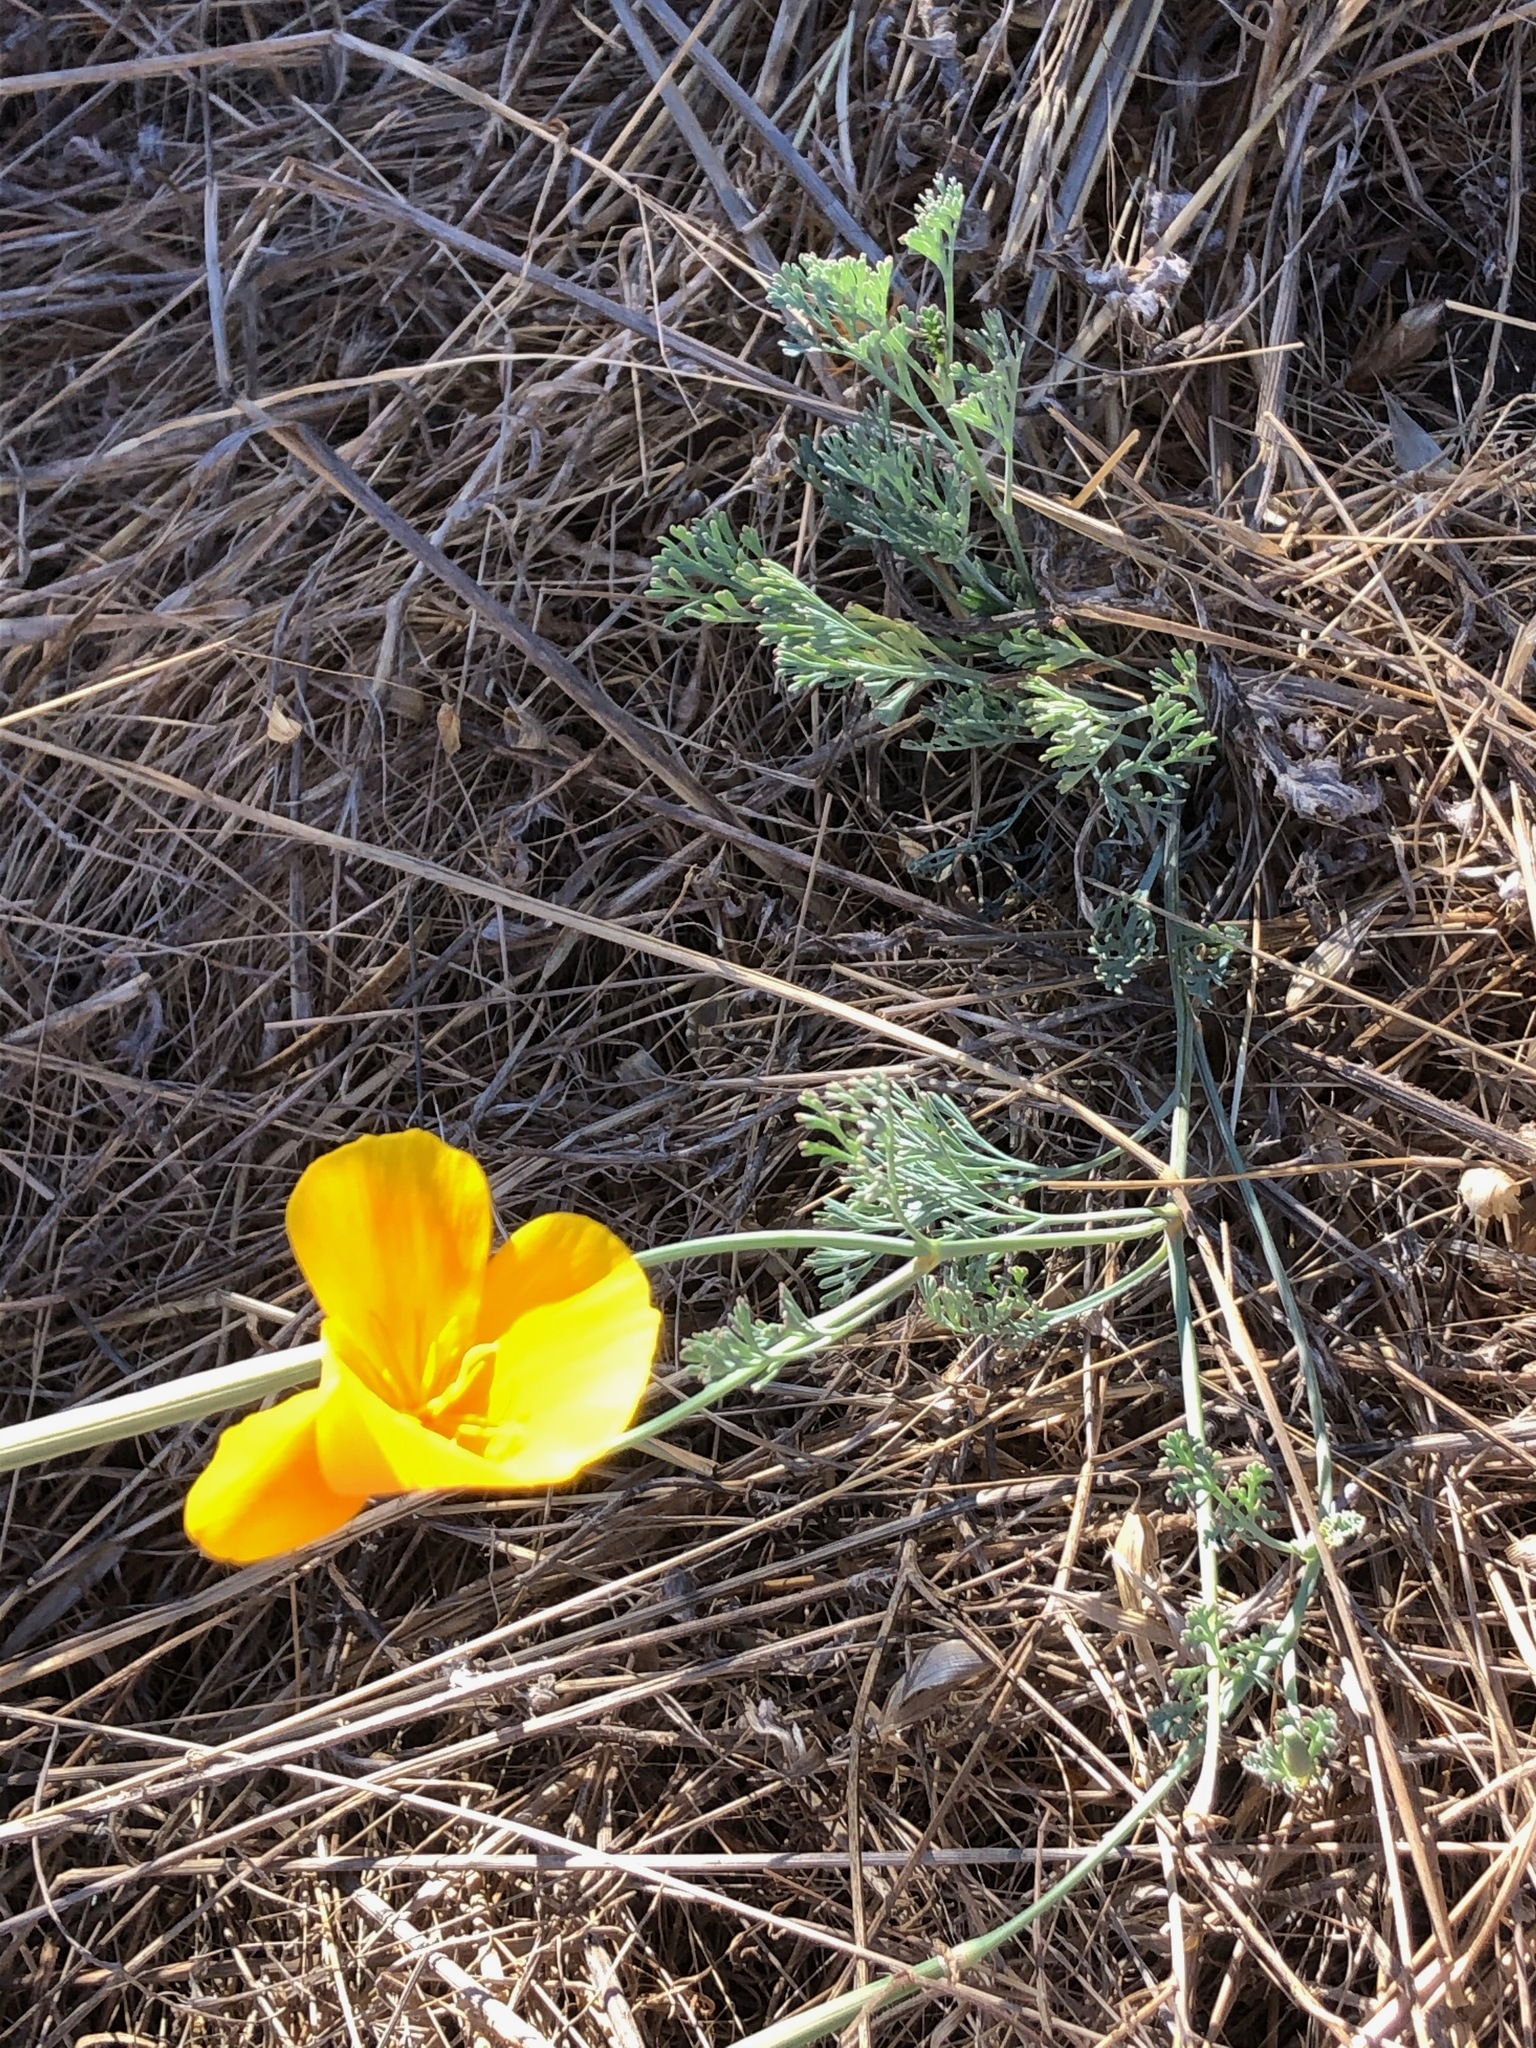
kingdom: Plantae
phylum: Tracheophyta
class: Magnoliopsida
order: Ranunculales
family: Papaveraceae
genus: Eschscholzia
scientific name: Eschscholzia californica
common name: California poppy
